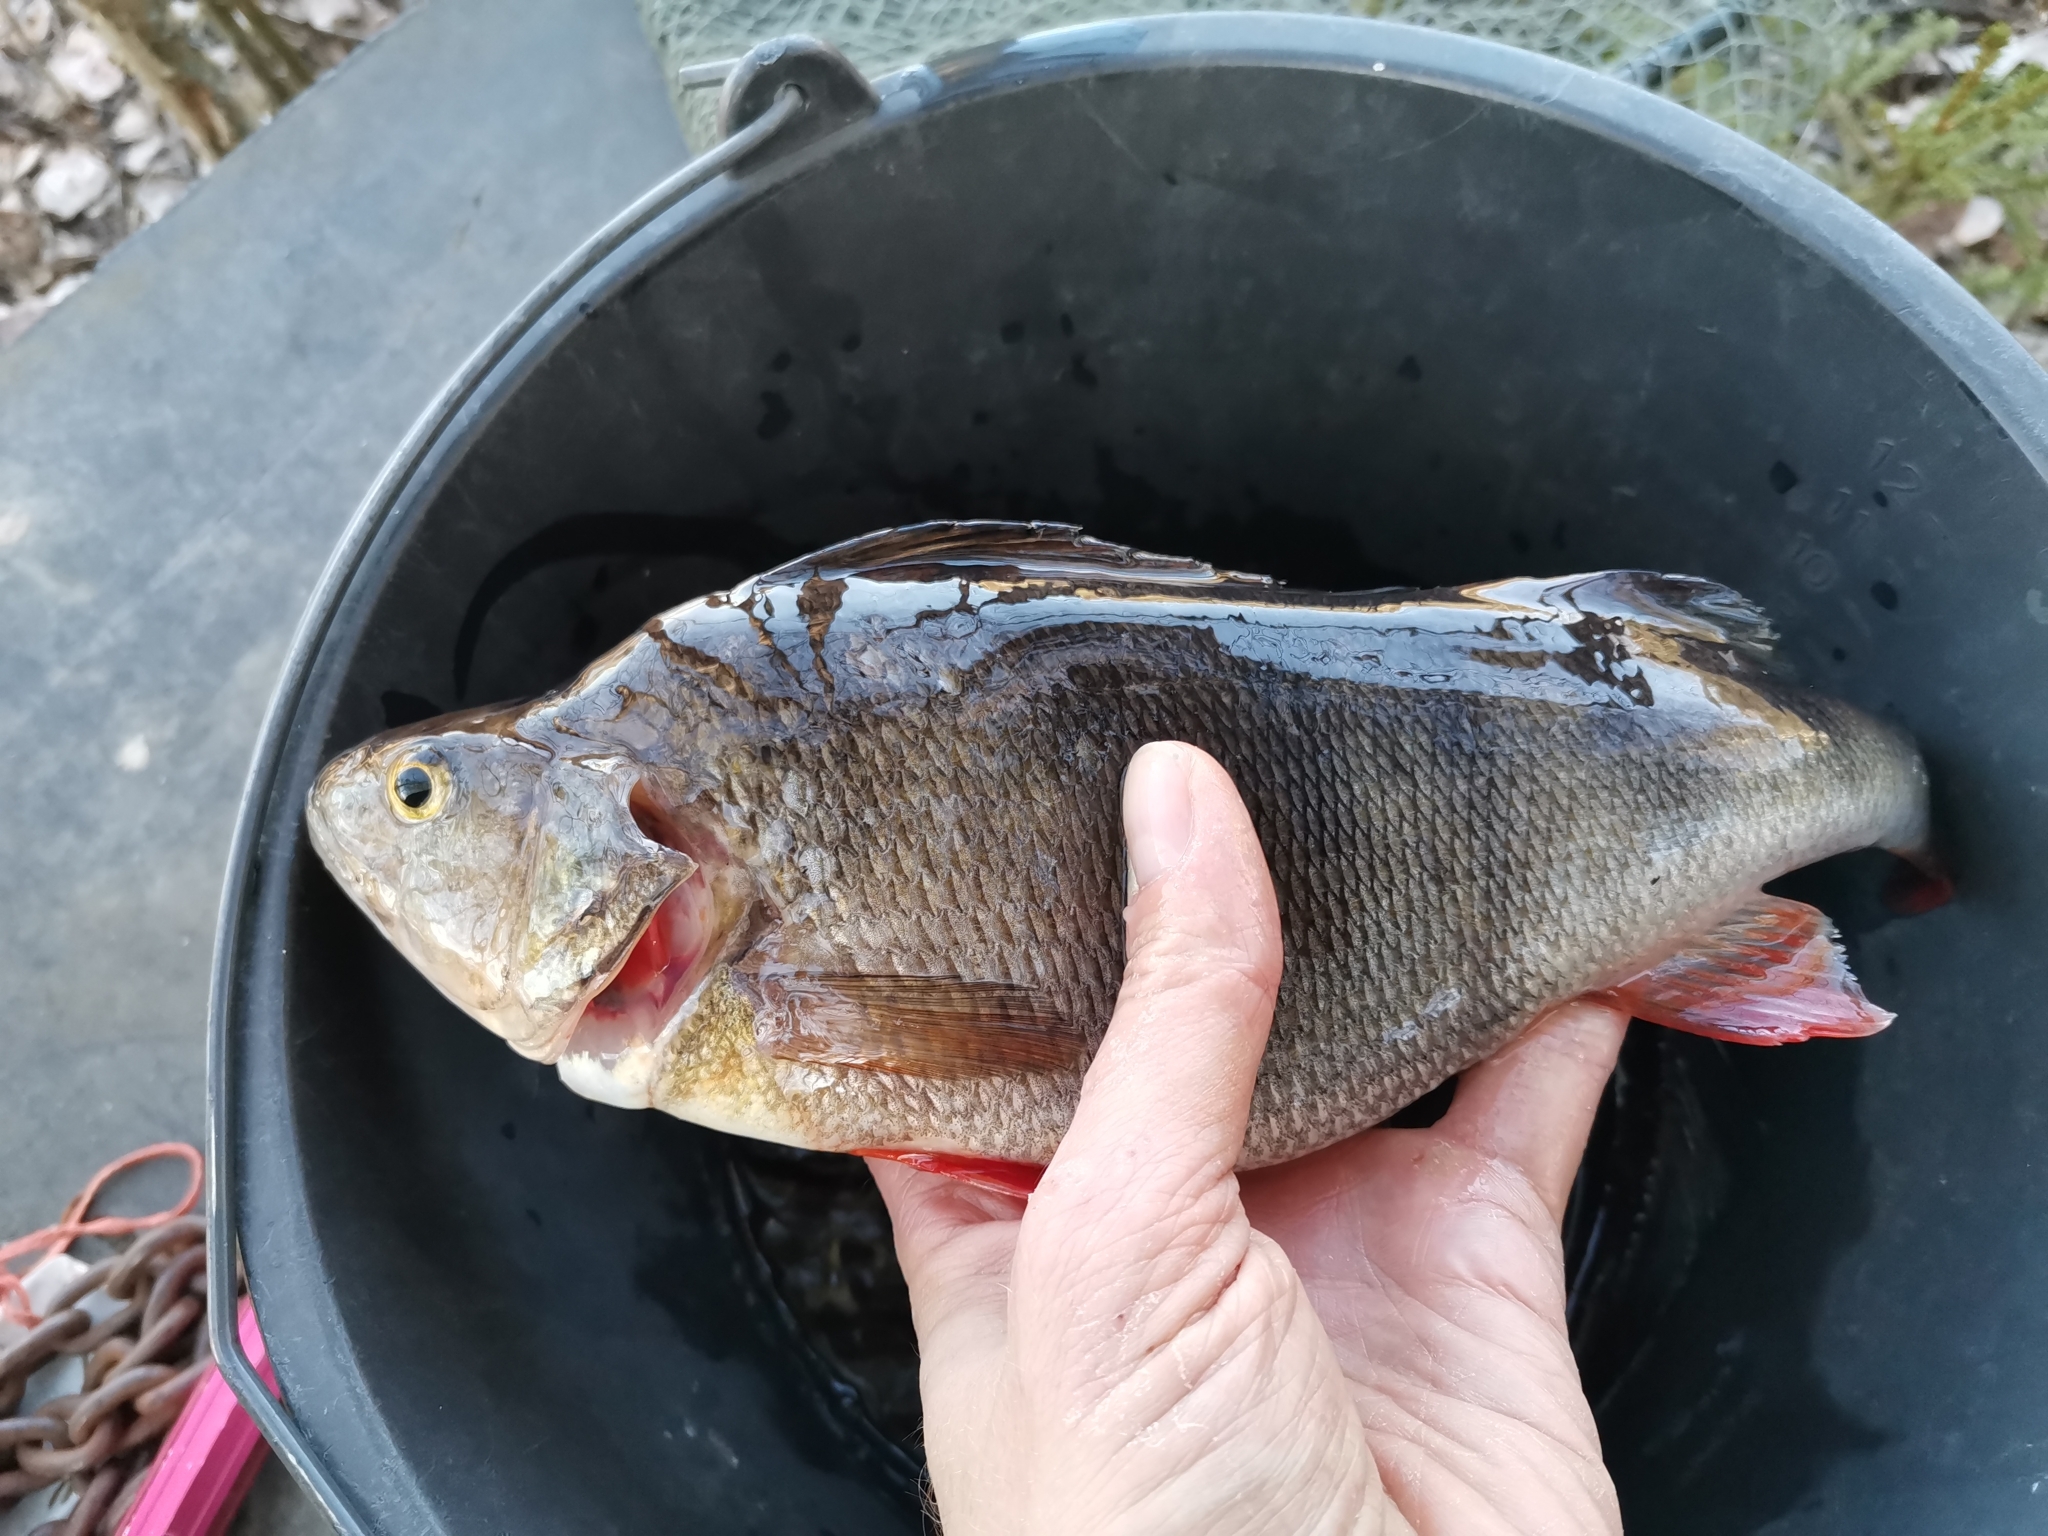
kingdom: Animalia
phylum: Chordata
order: Perciformes
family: Percidae
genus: Perca
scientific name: Perca fluviatilis
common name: Perch
